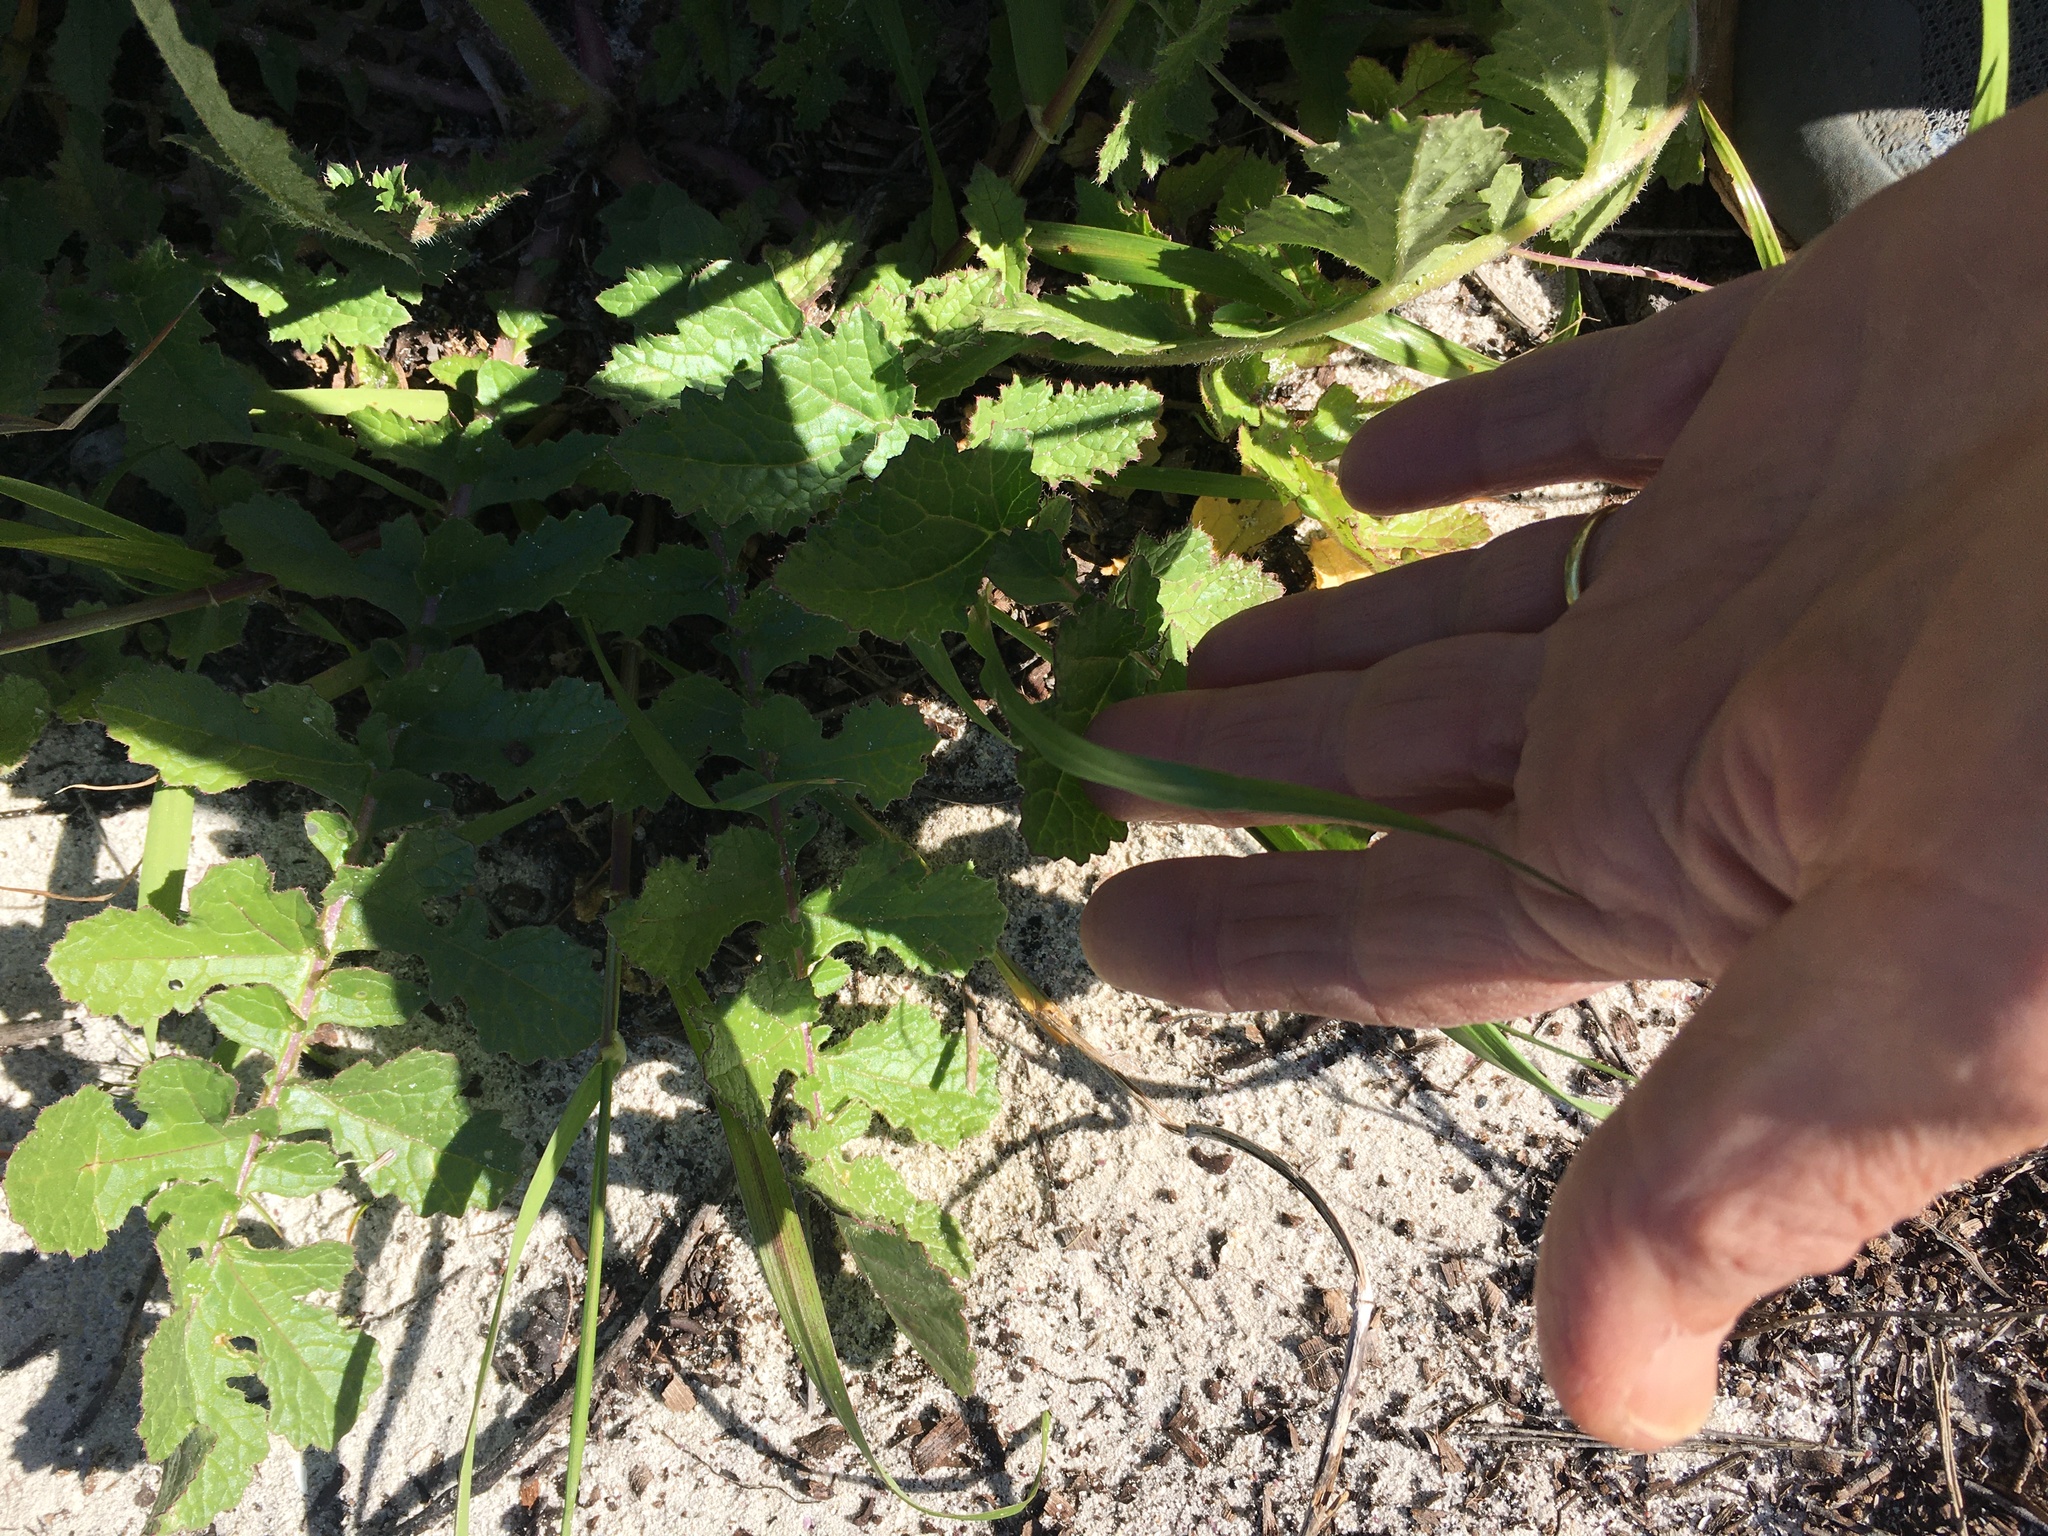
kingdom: Plantae
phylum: Tracheophyta
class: Magnoliopsida
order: Brassicales
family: Brassicaceae
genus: Raphanus
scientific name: Raphanus raphanistrum
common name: Wild radish
